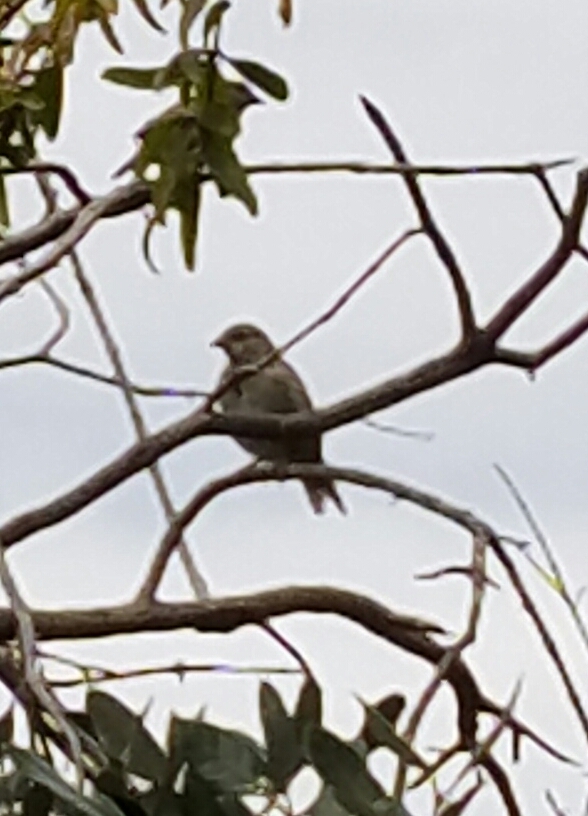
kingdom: Animalia
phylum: Chordata
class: Aves
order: Passeriformes
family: Passeridae
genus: Passer
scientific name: Passer domesticus
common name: House sparrow
